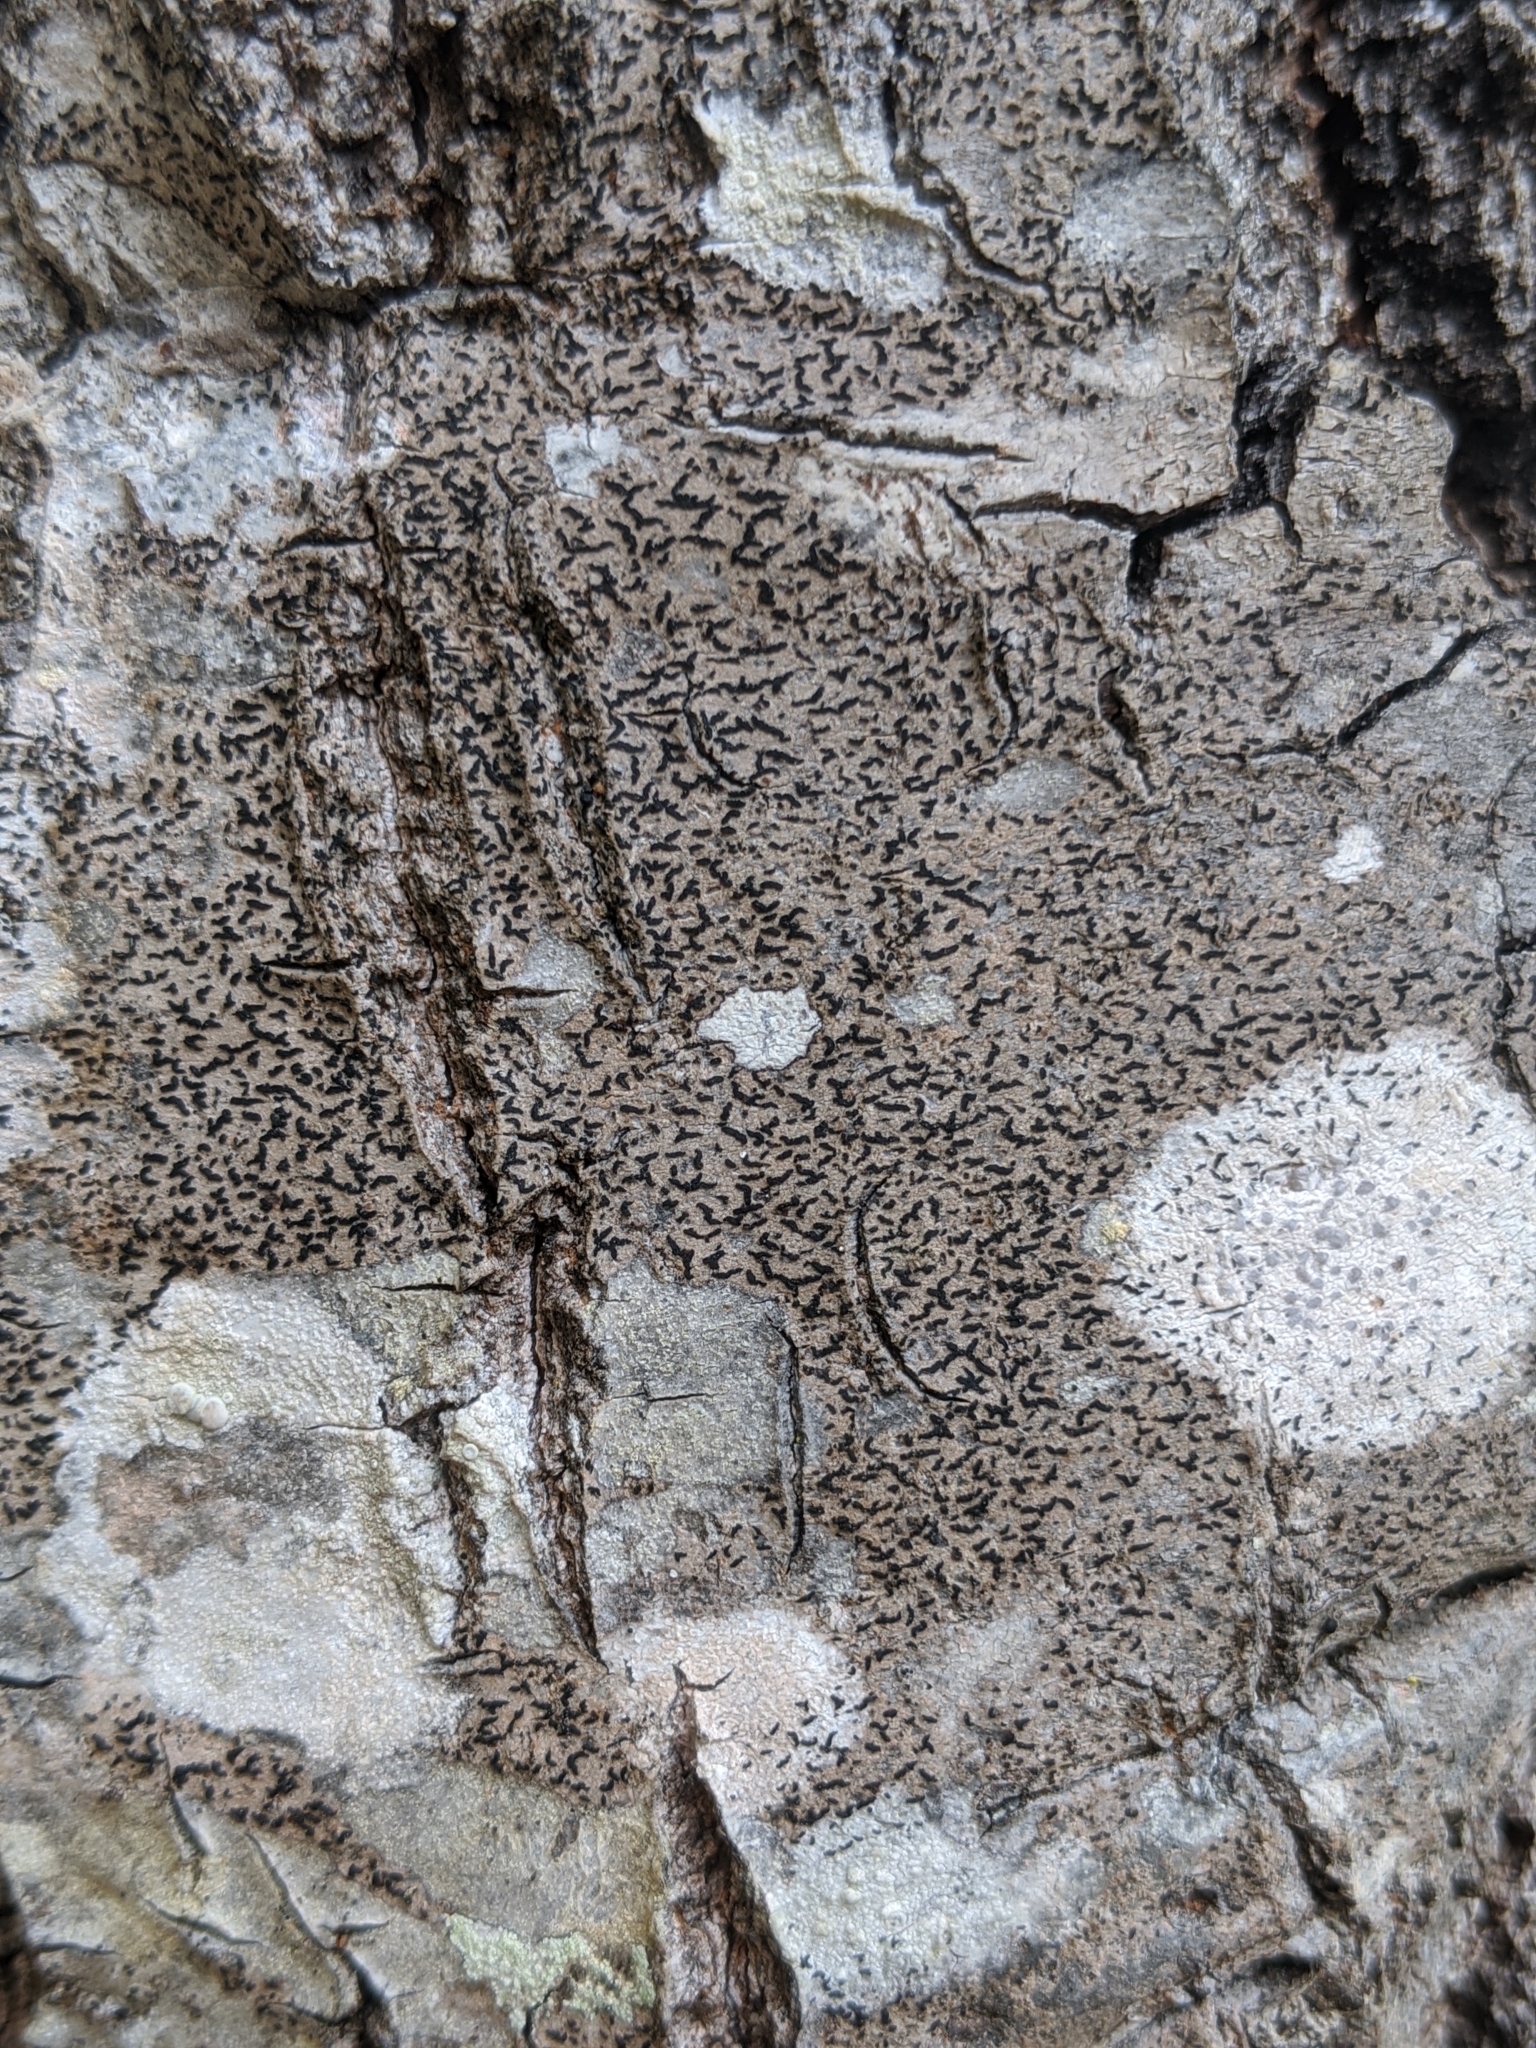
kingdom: Fungi
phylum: Ascomycota
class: Lecanoromycetes
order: Ostropales
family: Graphidaceae
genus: Opegrapha
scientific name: Opegrapha vulgata
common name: Olive scribble lichen
